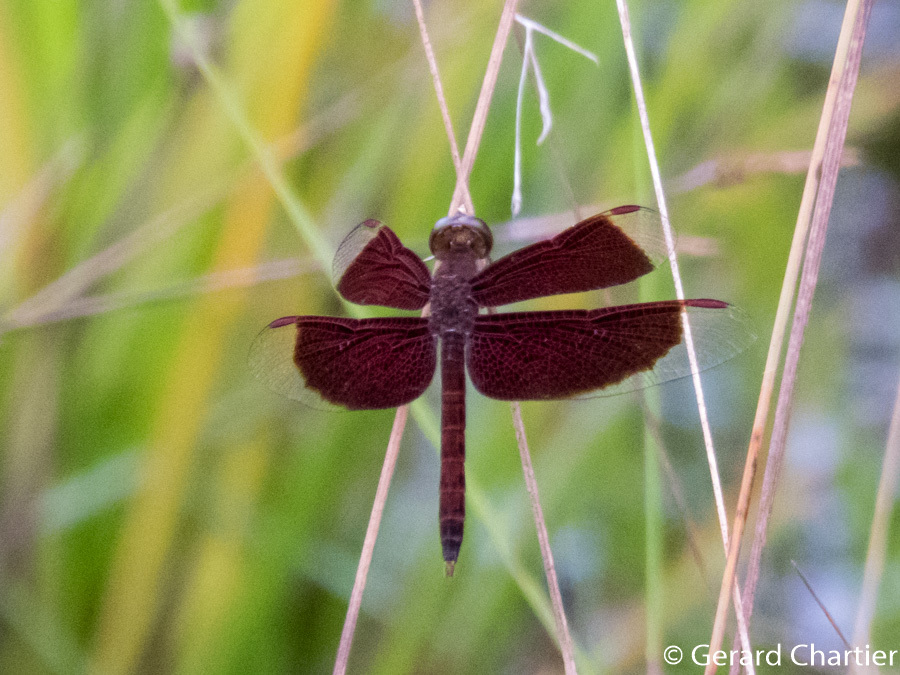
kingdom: Animalia
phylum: Arthropoda
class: Insecta
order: Odonata
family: Libellulidae
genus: Neurothemis
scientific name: Neurothemis fluctuans
